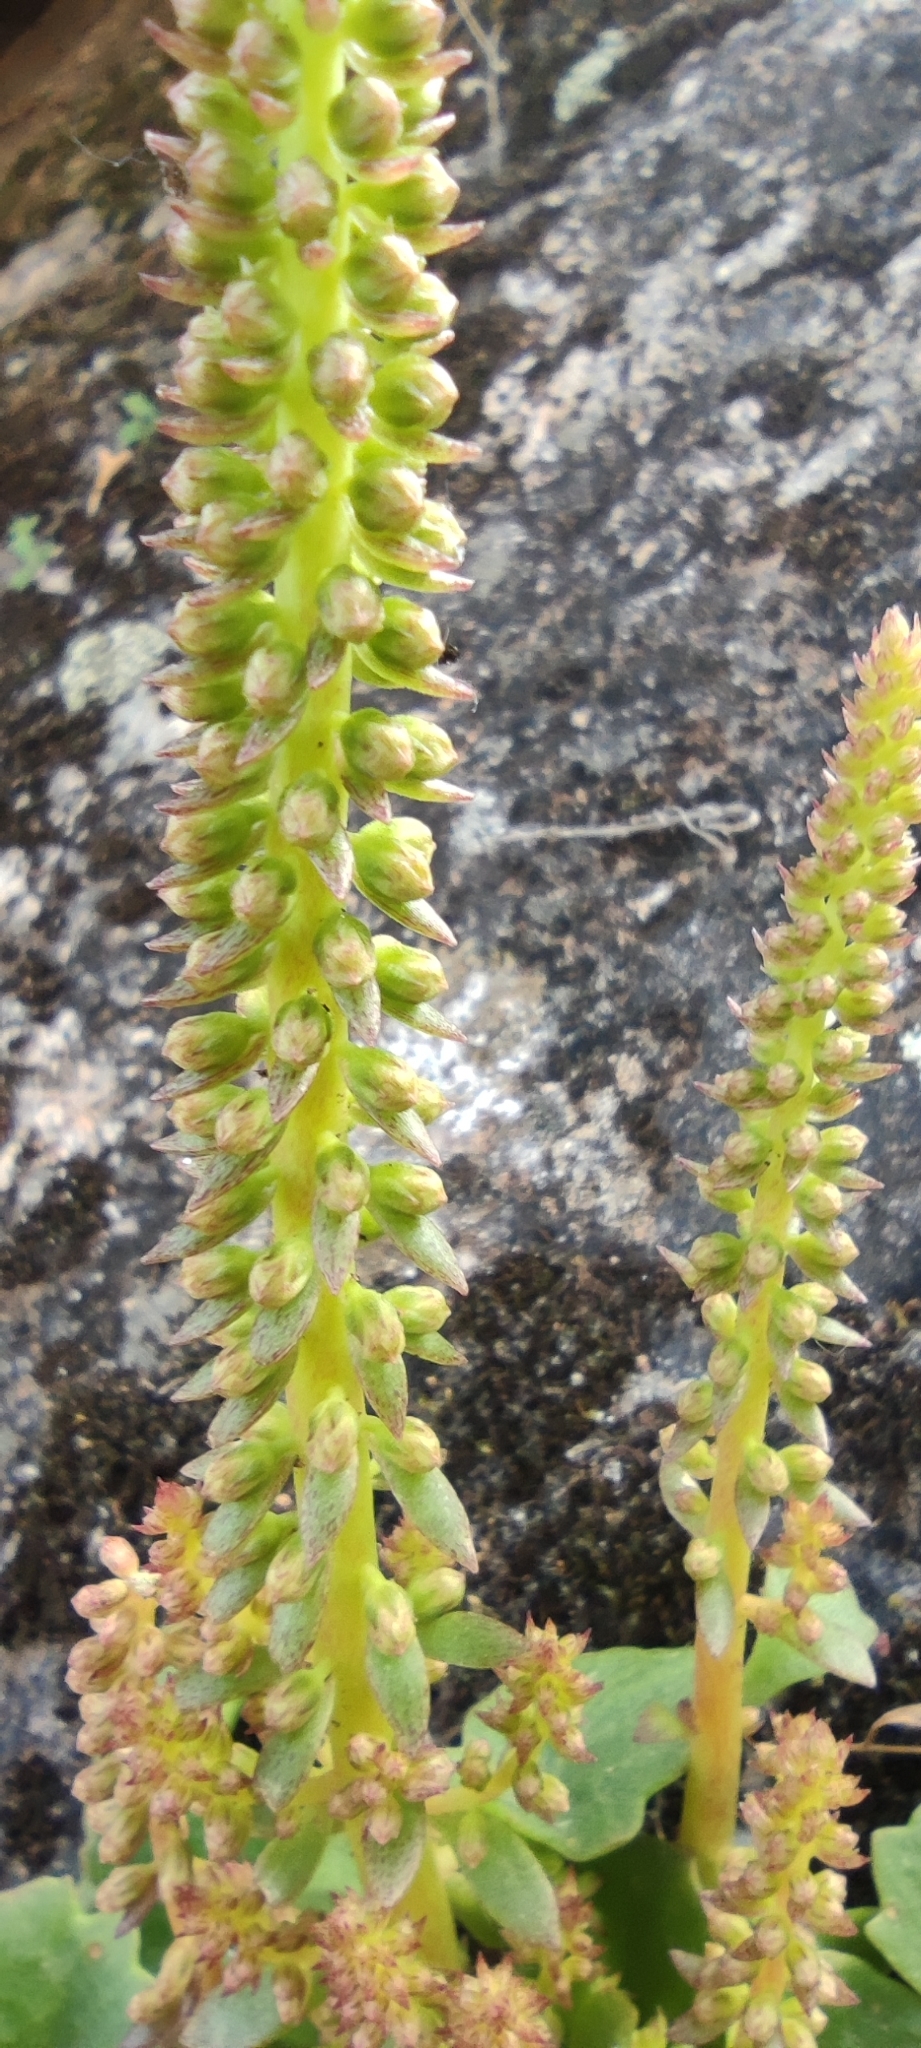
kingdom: Plantae
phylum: Tracheophyta
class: Magnoliopsida
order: Saxifragales
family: Crassulaceae
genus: Umbilicus
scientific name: Umbilicus rupestris
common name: Navelwort
